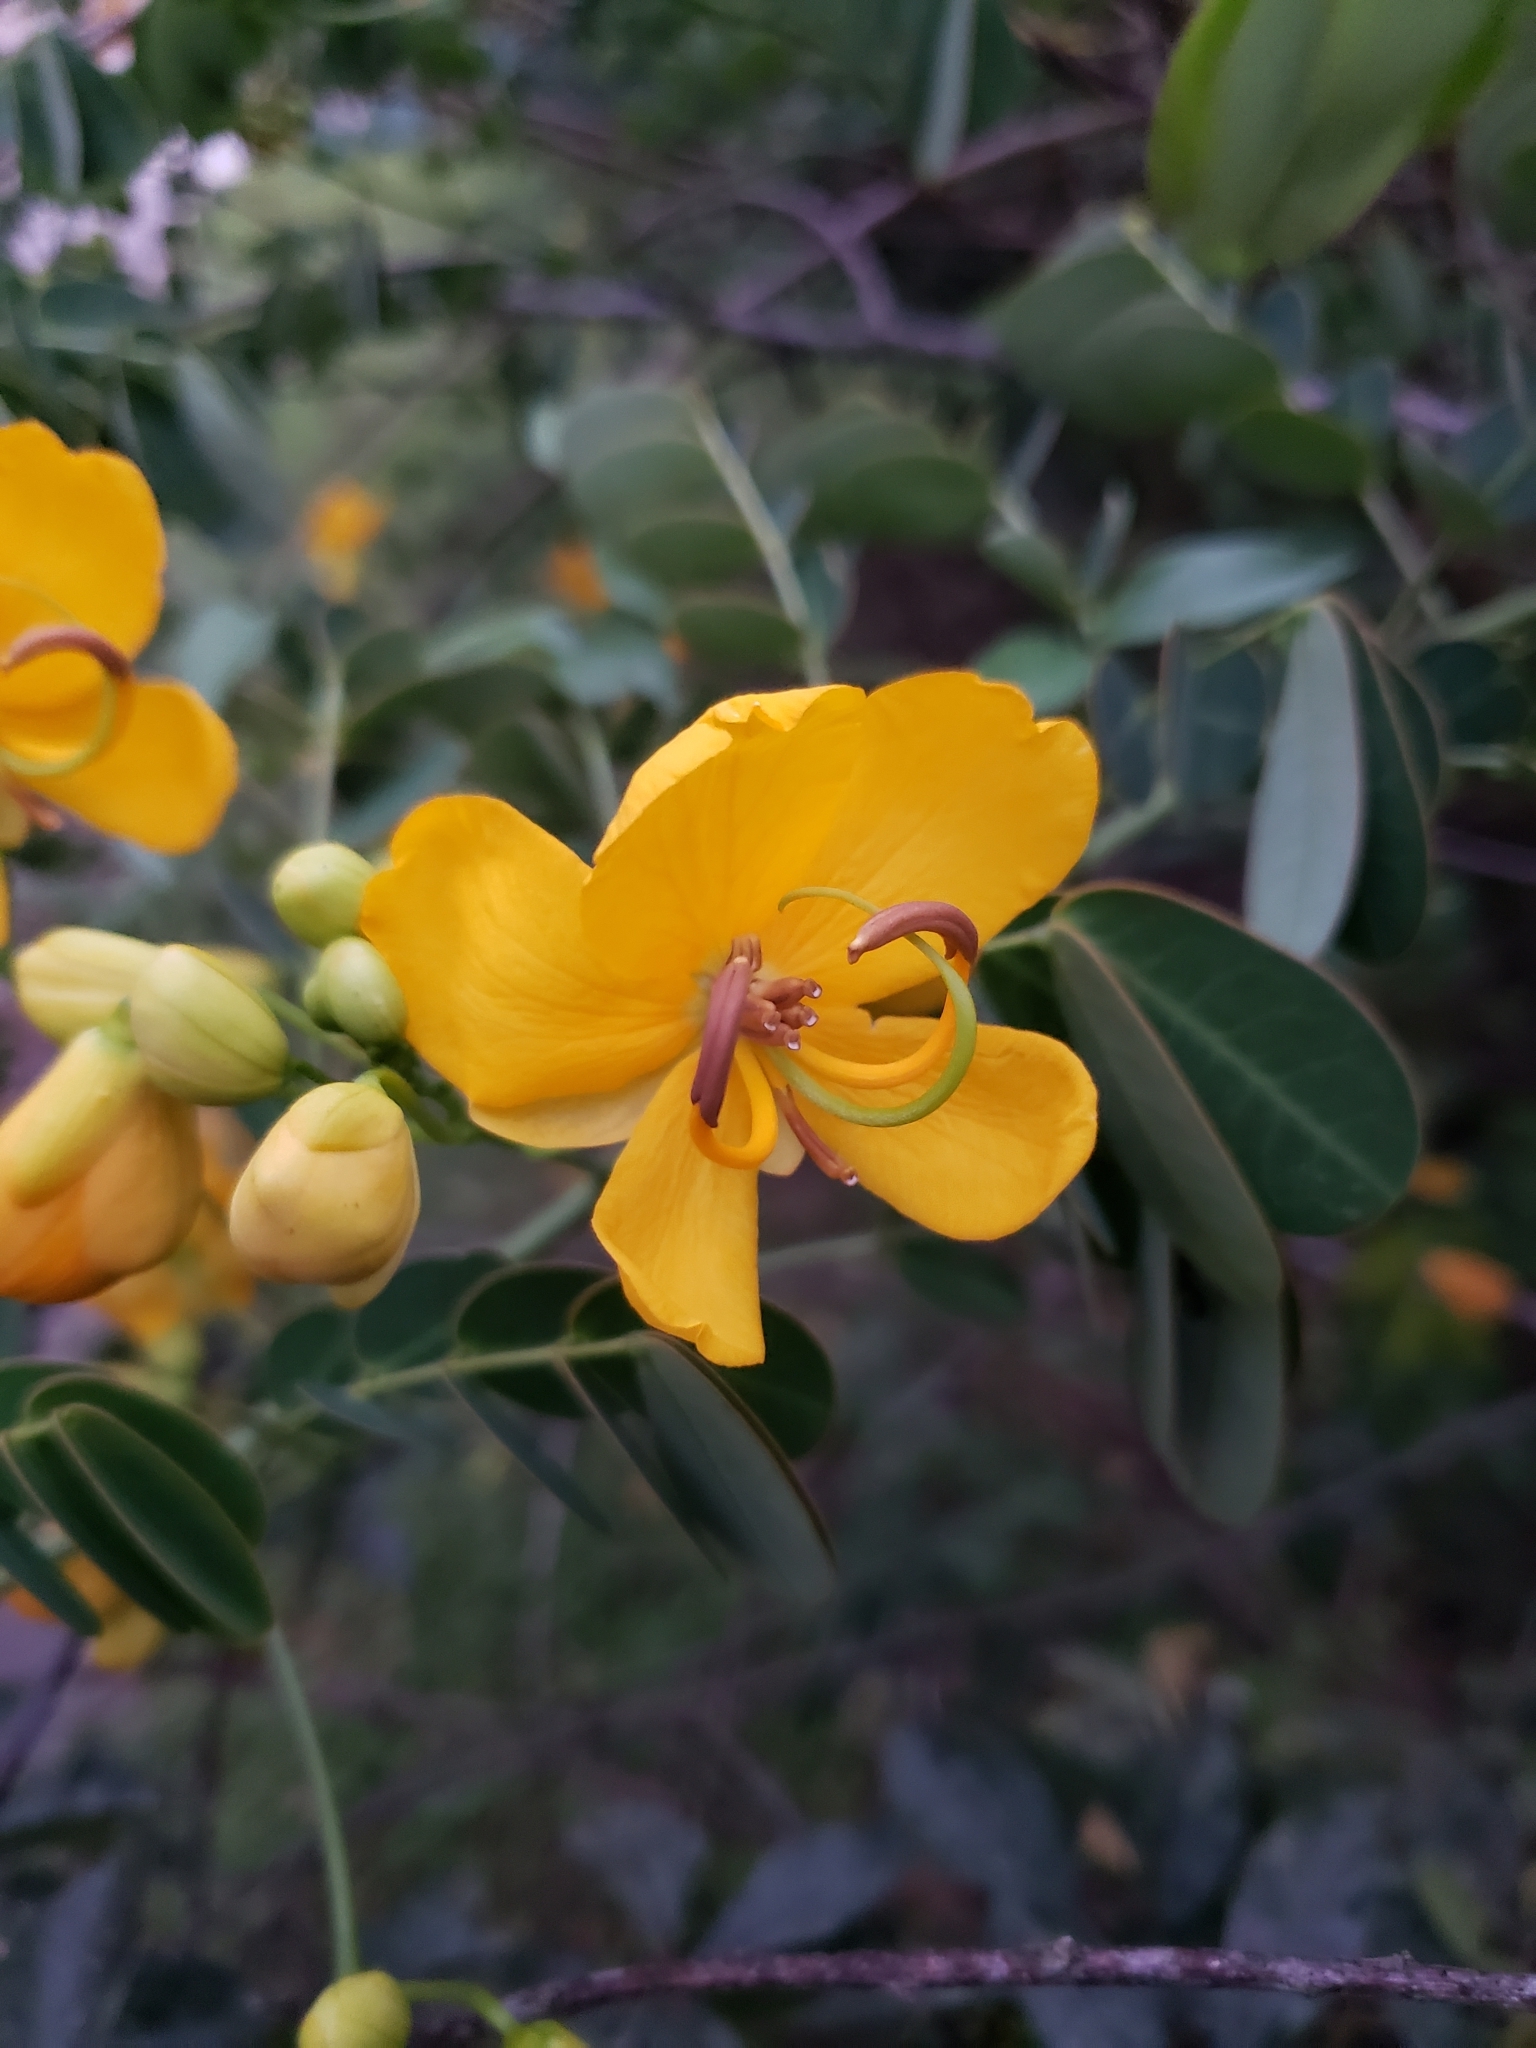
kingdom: Plantae
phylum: Tracheophyta
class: Magnoliopsida
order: Fabales
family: Fabaceae
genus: Senna
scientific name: Senna pendula
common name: Easter cassia
